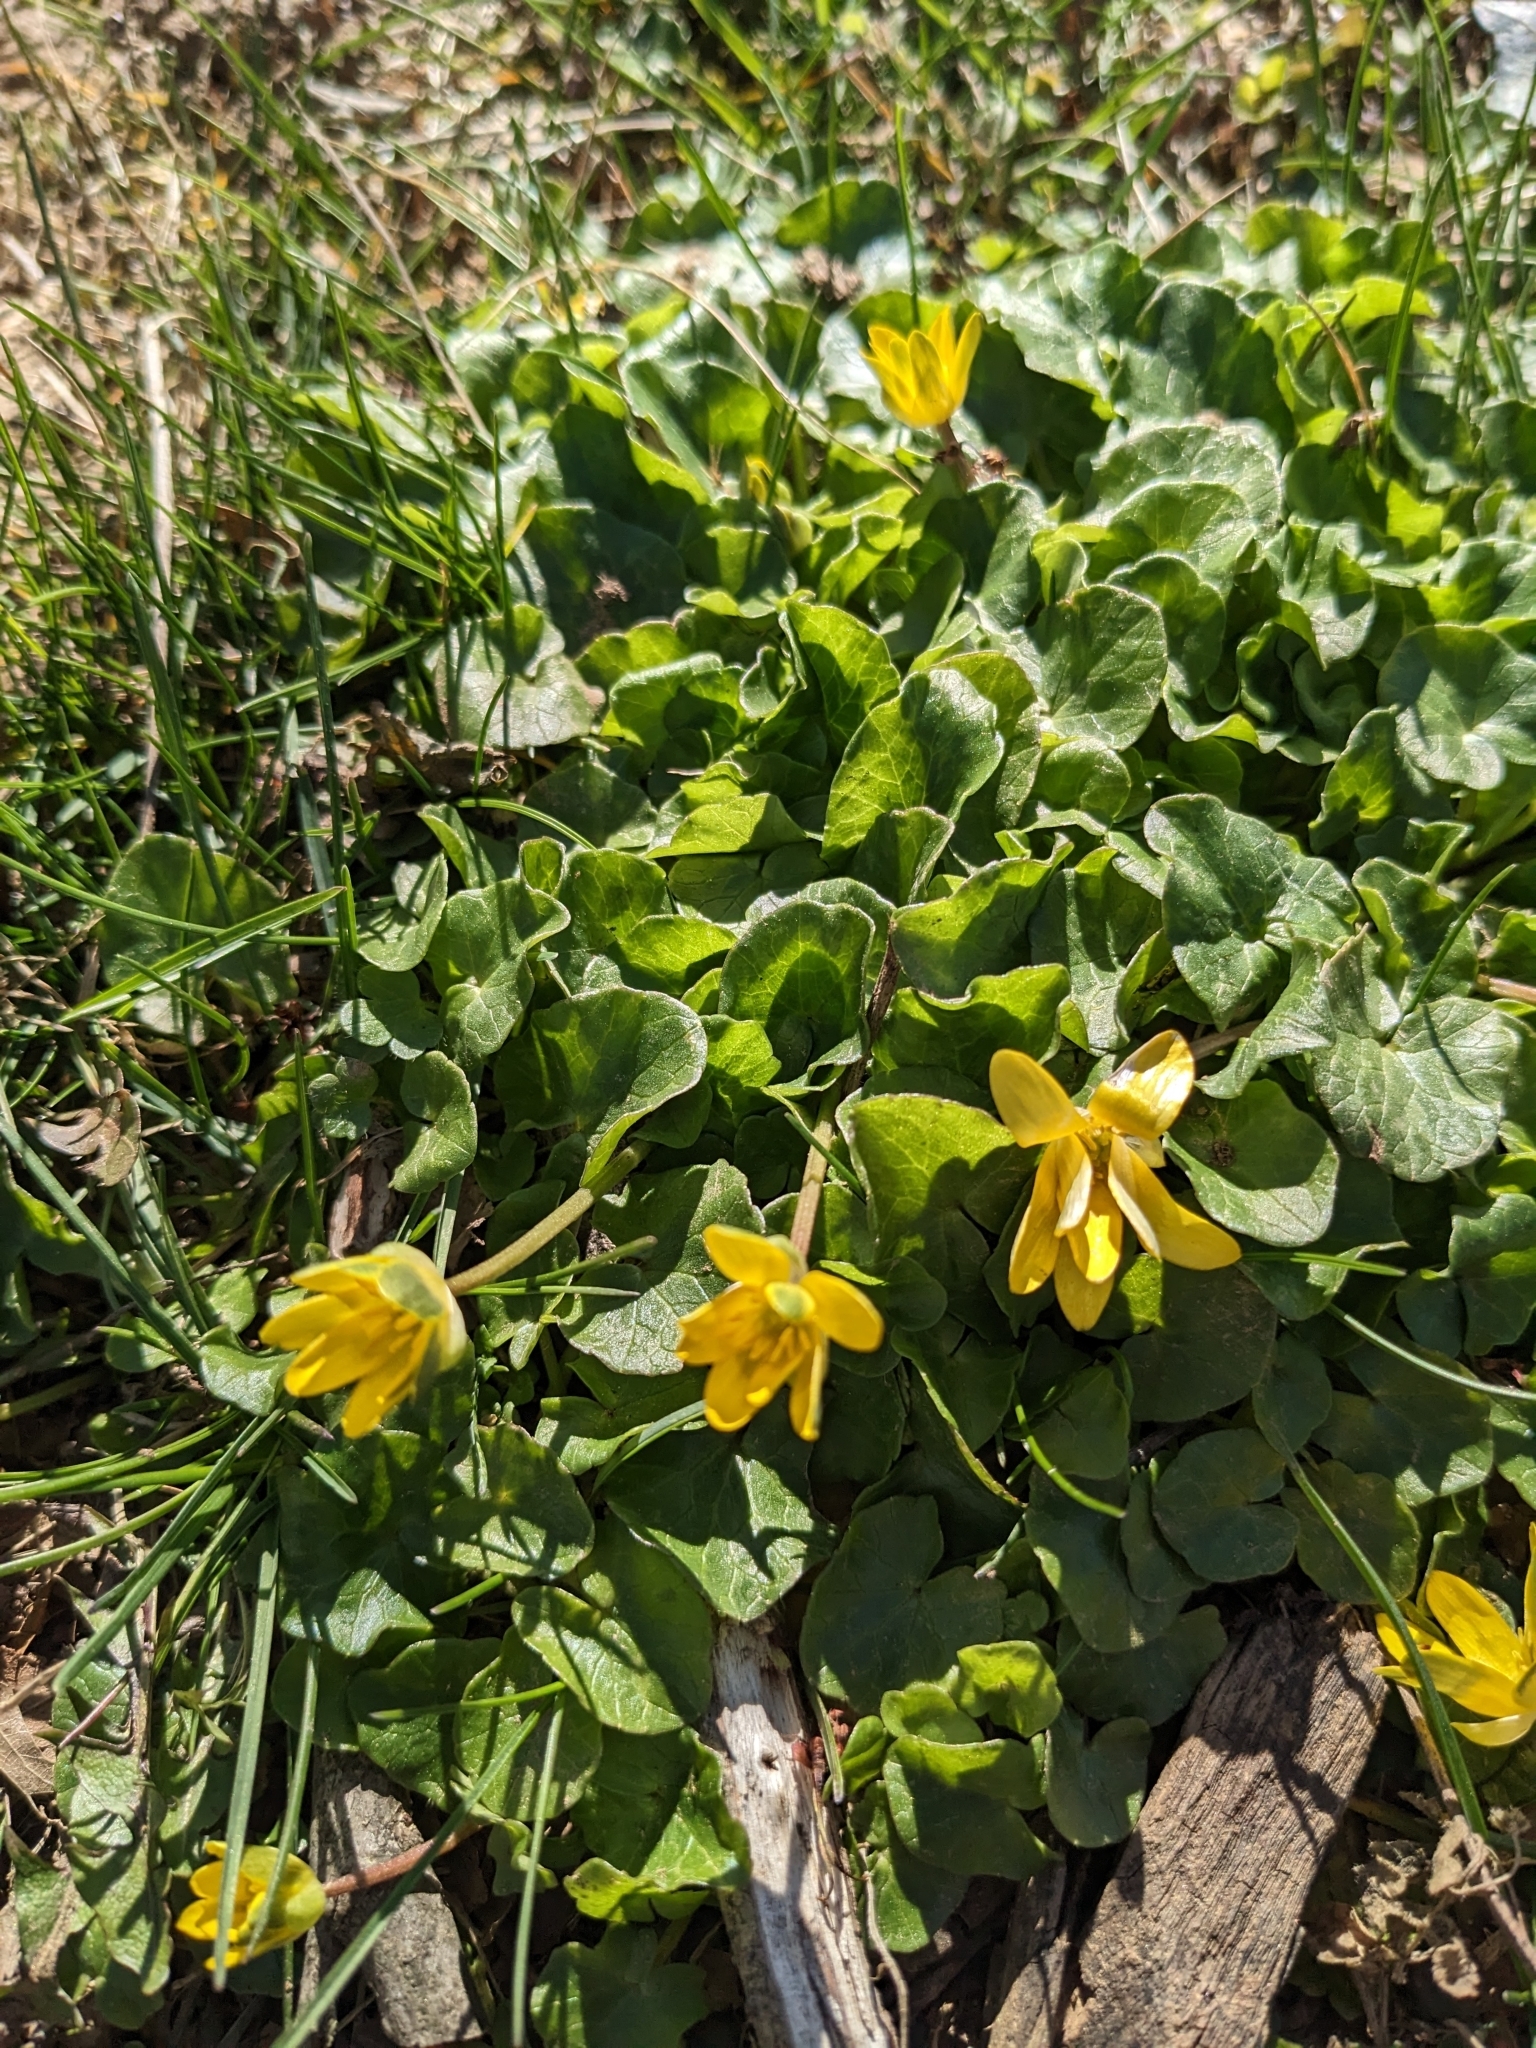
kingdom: Plantae
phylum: Tracheophyta
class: Magnoliopsida
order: Ranunculales
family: Ranunculaceae
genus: Ficaria
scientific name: Ficaria verna
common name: Lesser celandine
